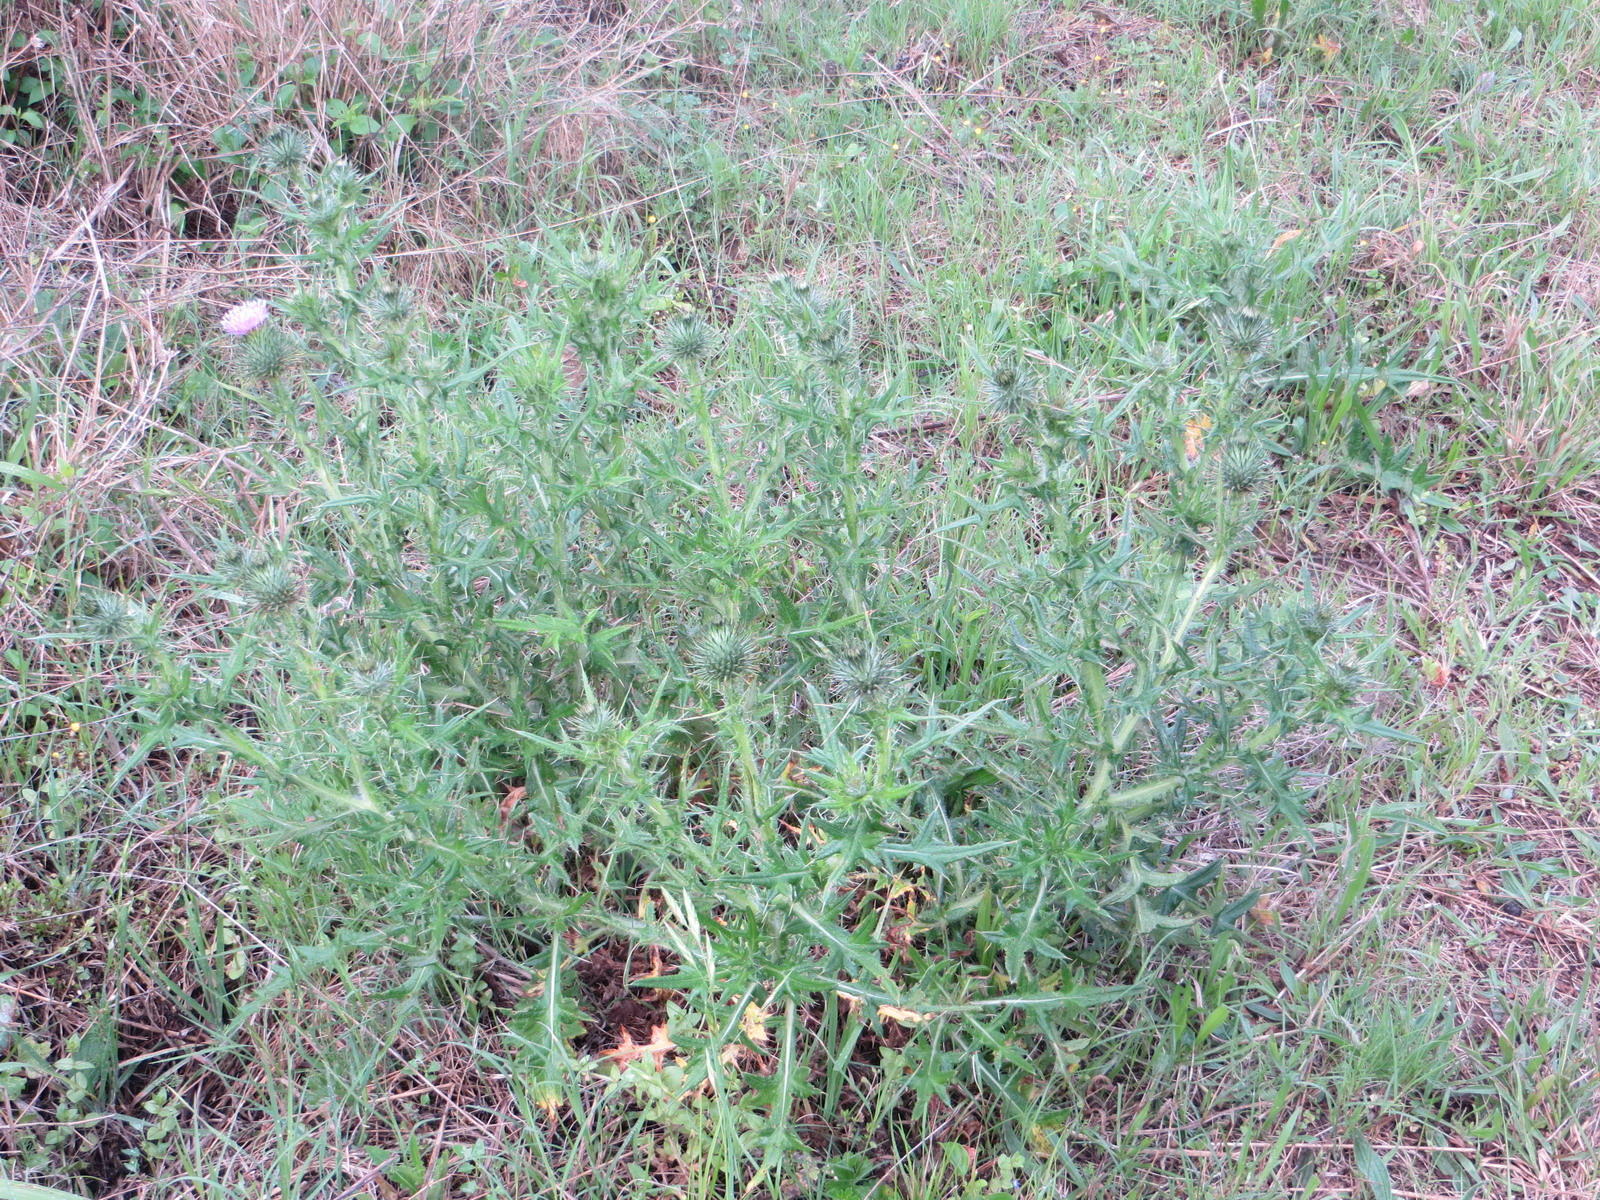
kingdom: Plantae
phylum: Tracheophyta
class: Magnoliopsida
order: Asterales
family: Asteraceae
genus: Cirsium
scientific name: Cirsium vulgare
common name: Bull thistle
